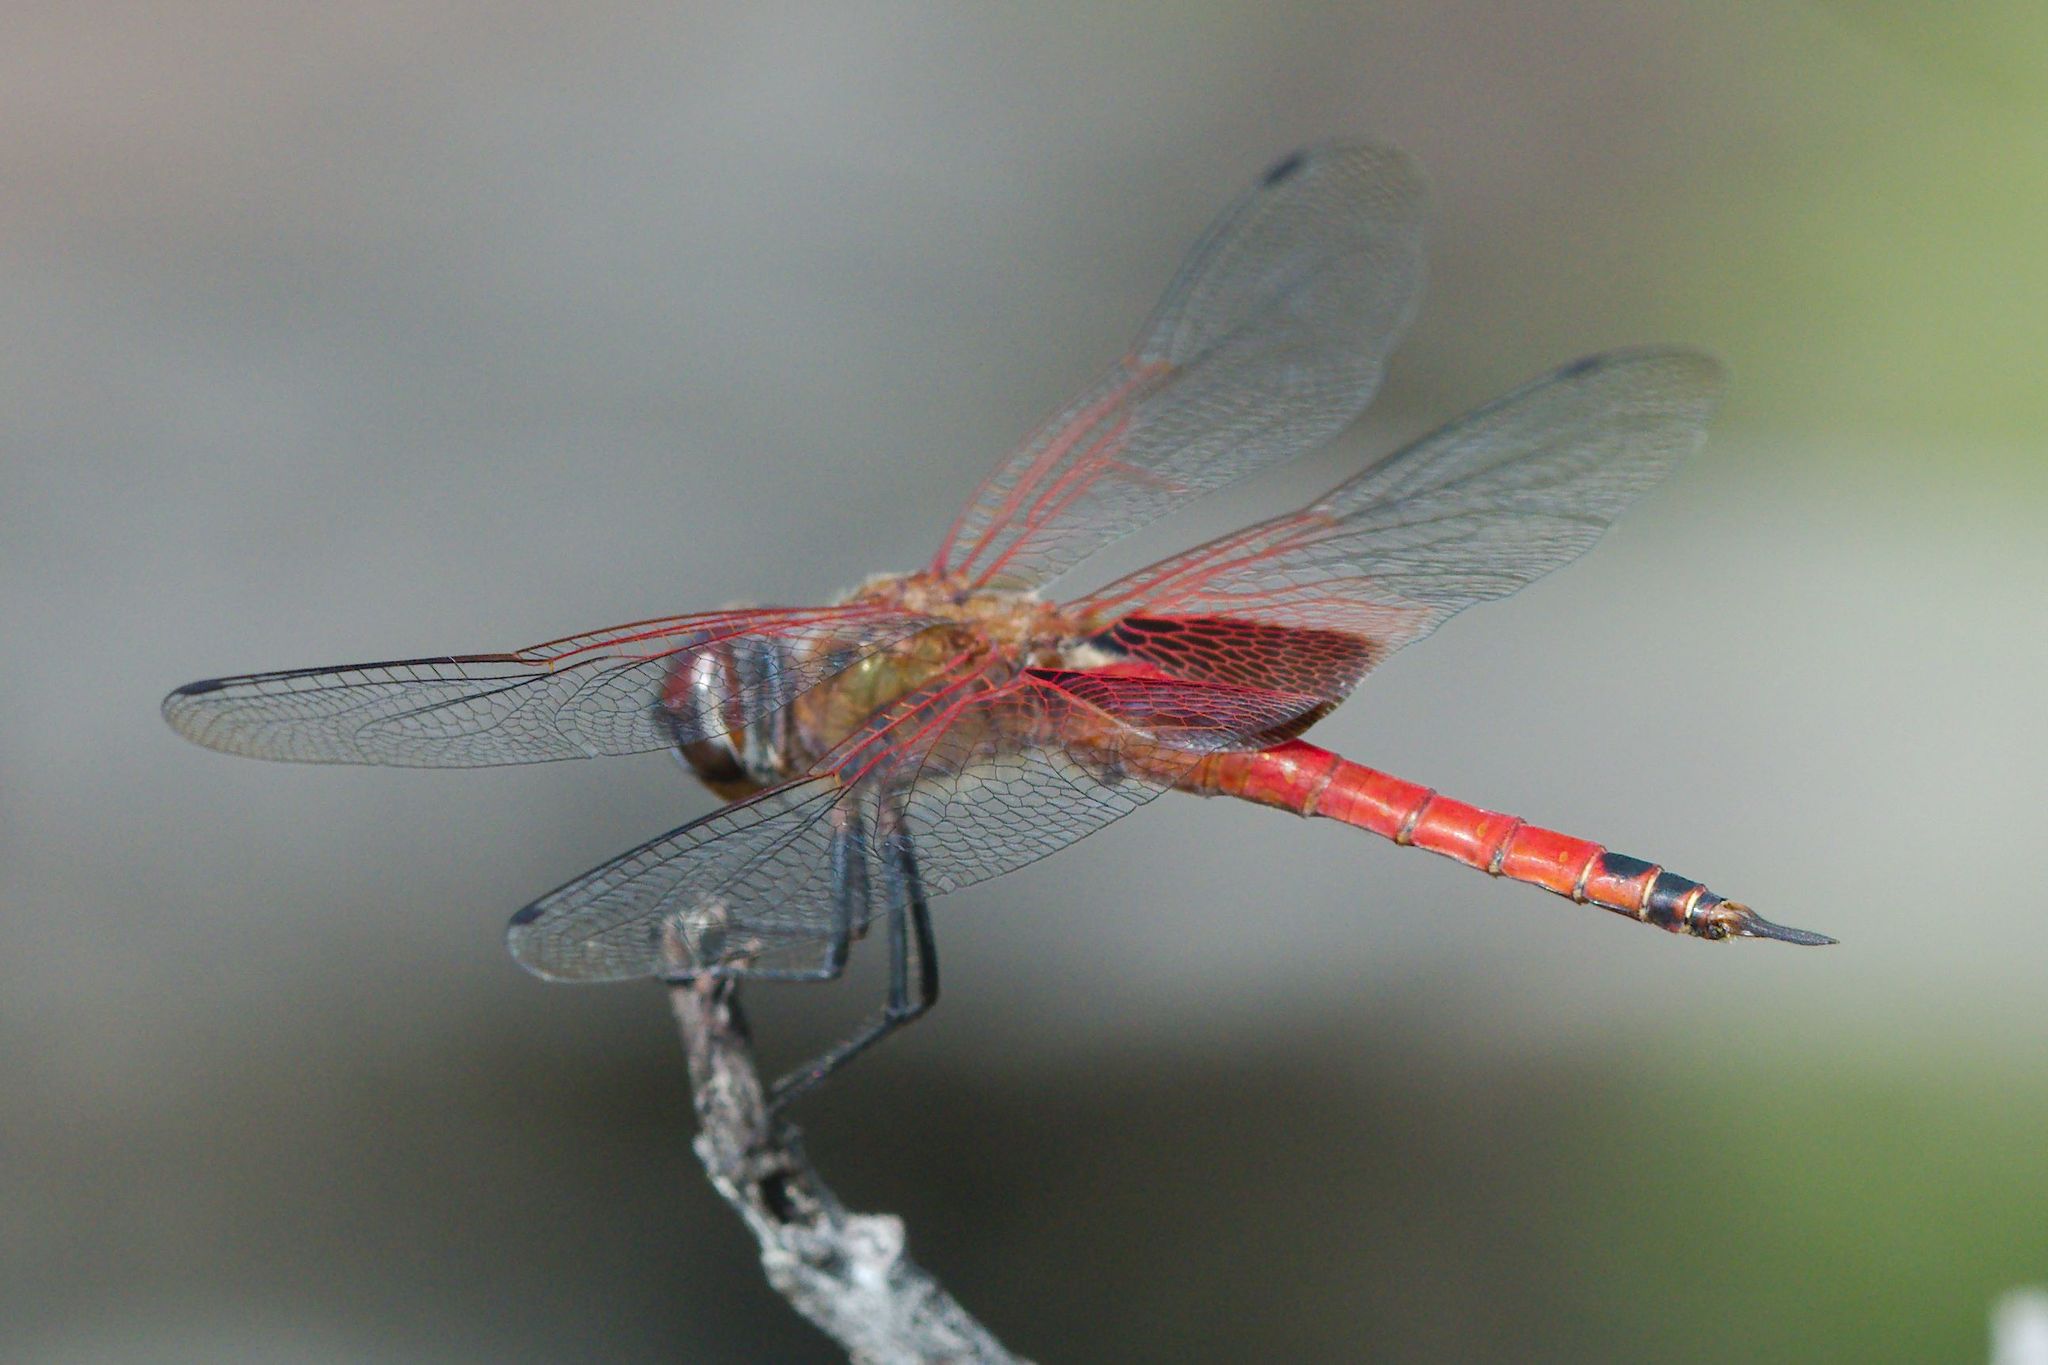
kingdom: Animalia
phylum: Arthropoda
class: Insecta
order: Odonata
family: Libellulidae
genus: Tramea
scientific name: Tramea insularis
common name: Antillean saddlebags
